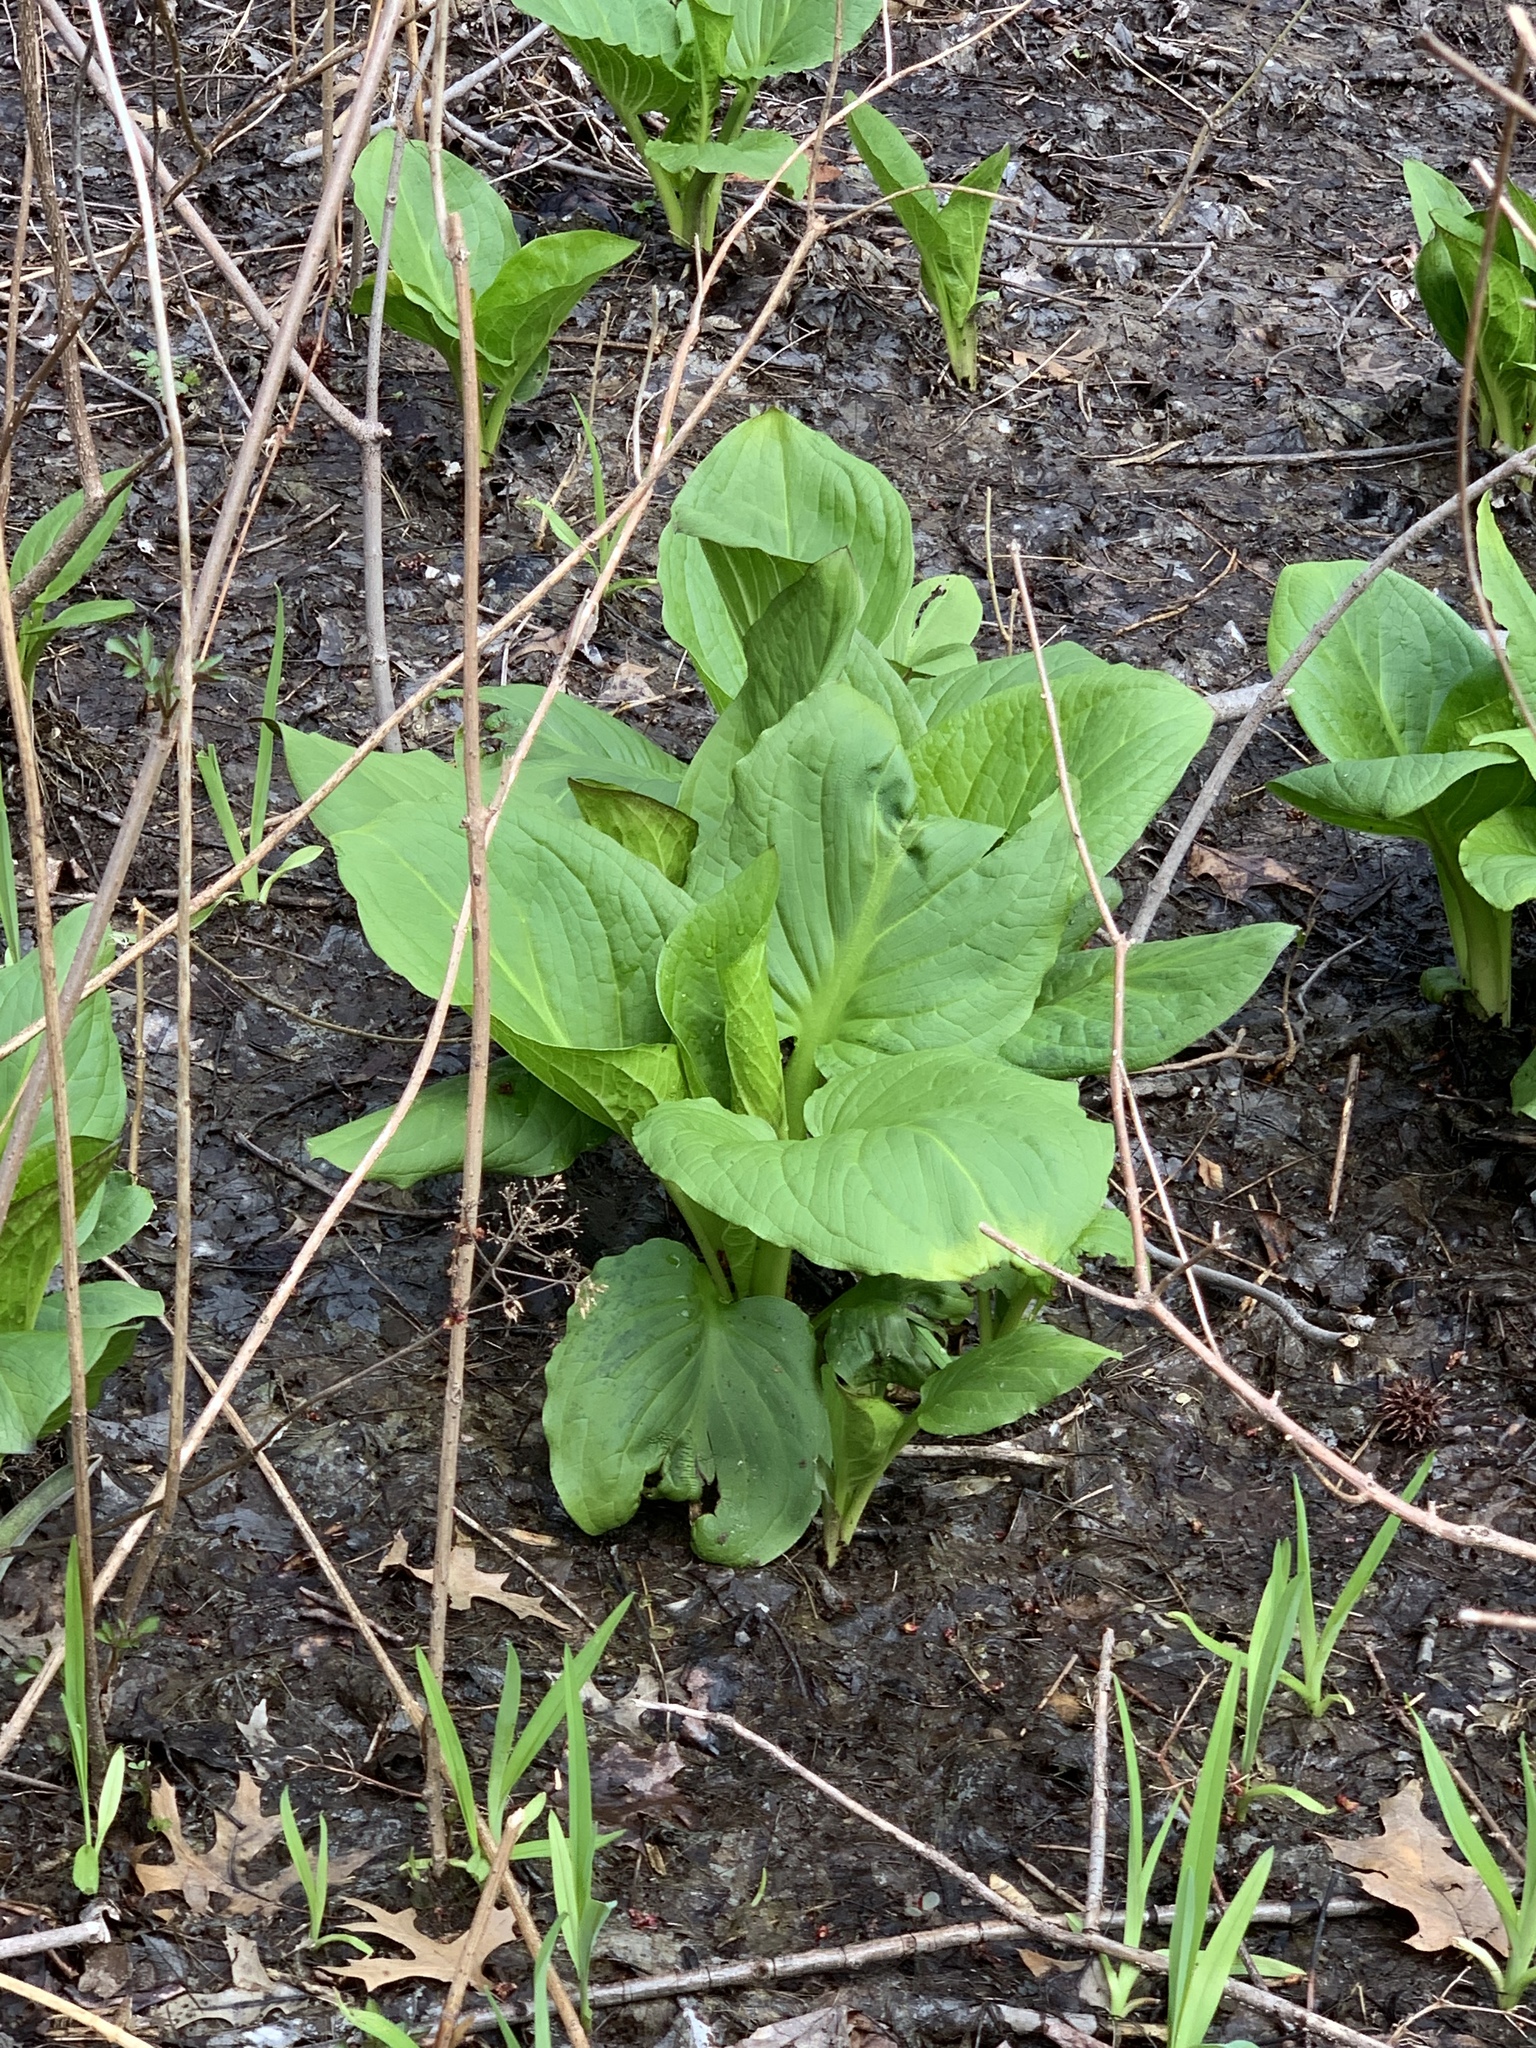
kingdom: Plantae
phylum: Tracheophyta
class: Liliopsida
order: Alismatales
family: Araceae
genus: Symplocarpus
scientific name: Symplocarpus foetidus
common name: Eastern skunk cabbage
